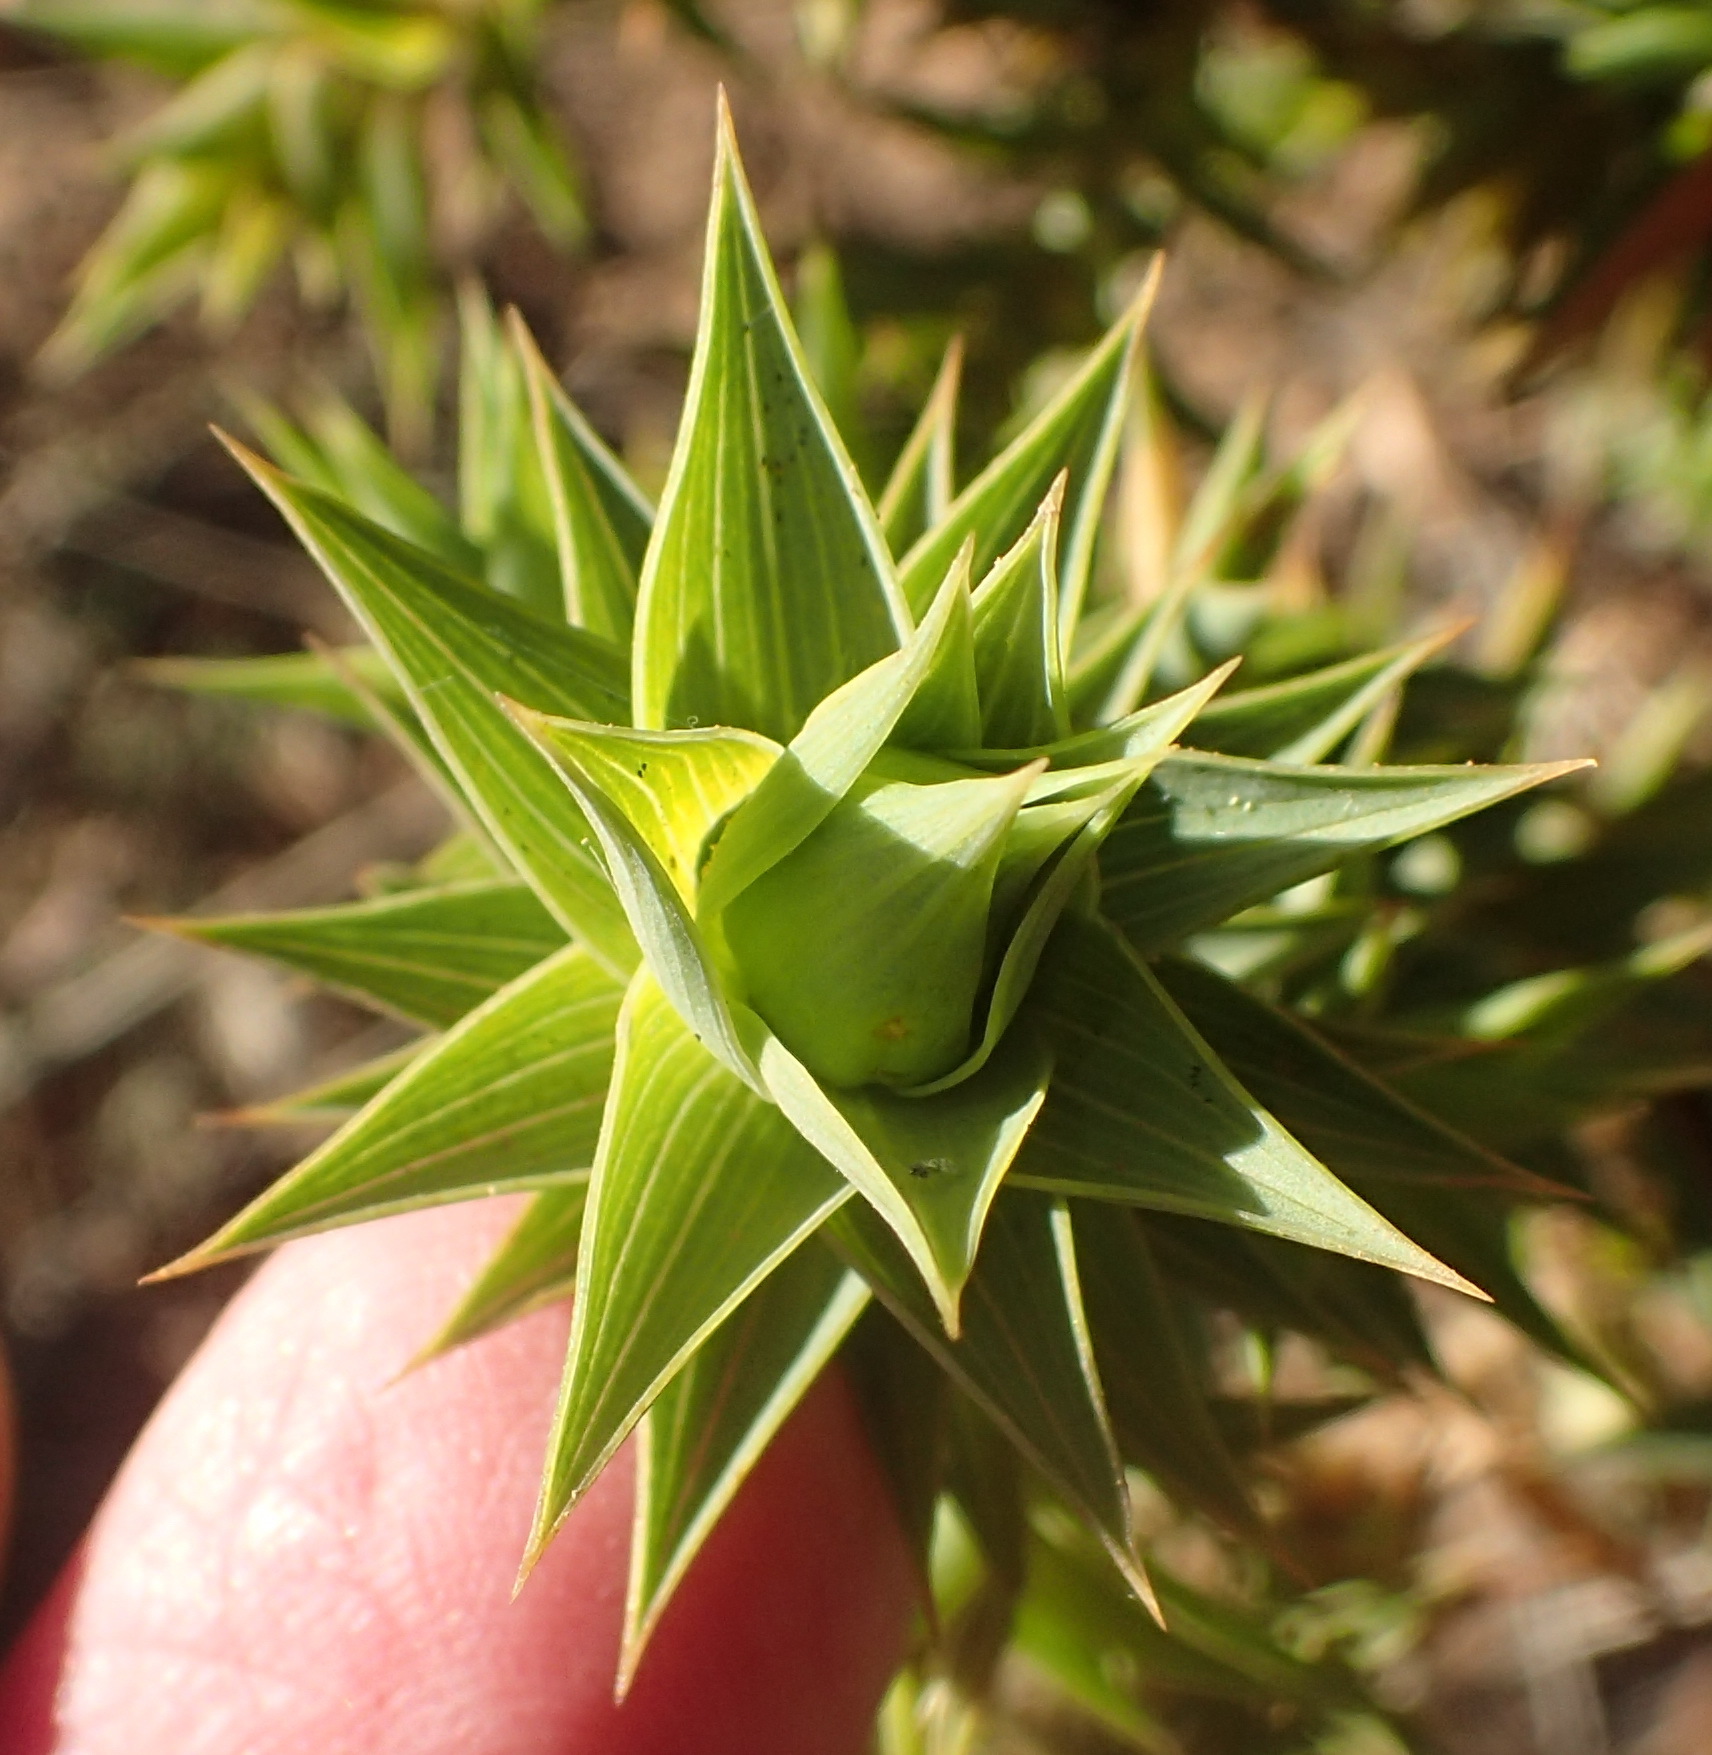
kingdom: Plantae
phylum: Tracheophyta
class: Magnoliopsida
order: Fabales
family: Fabaceae
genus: Aspalathus
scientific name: Aspalathus cordata
